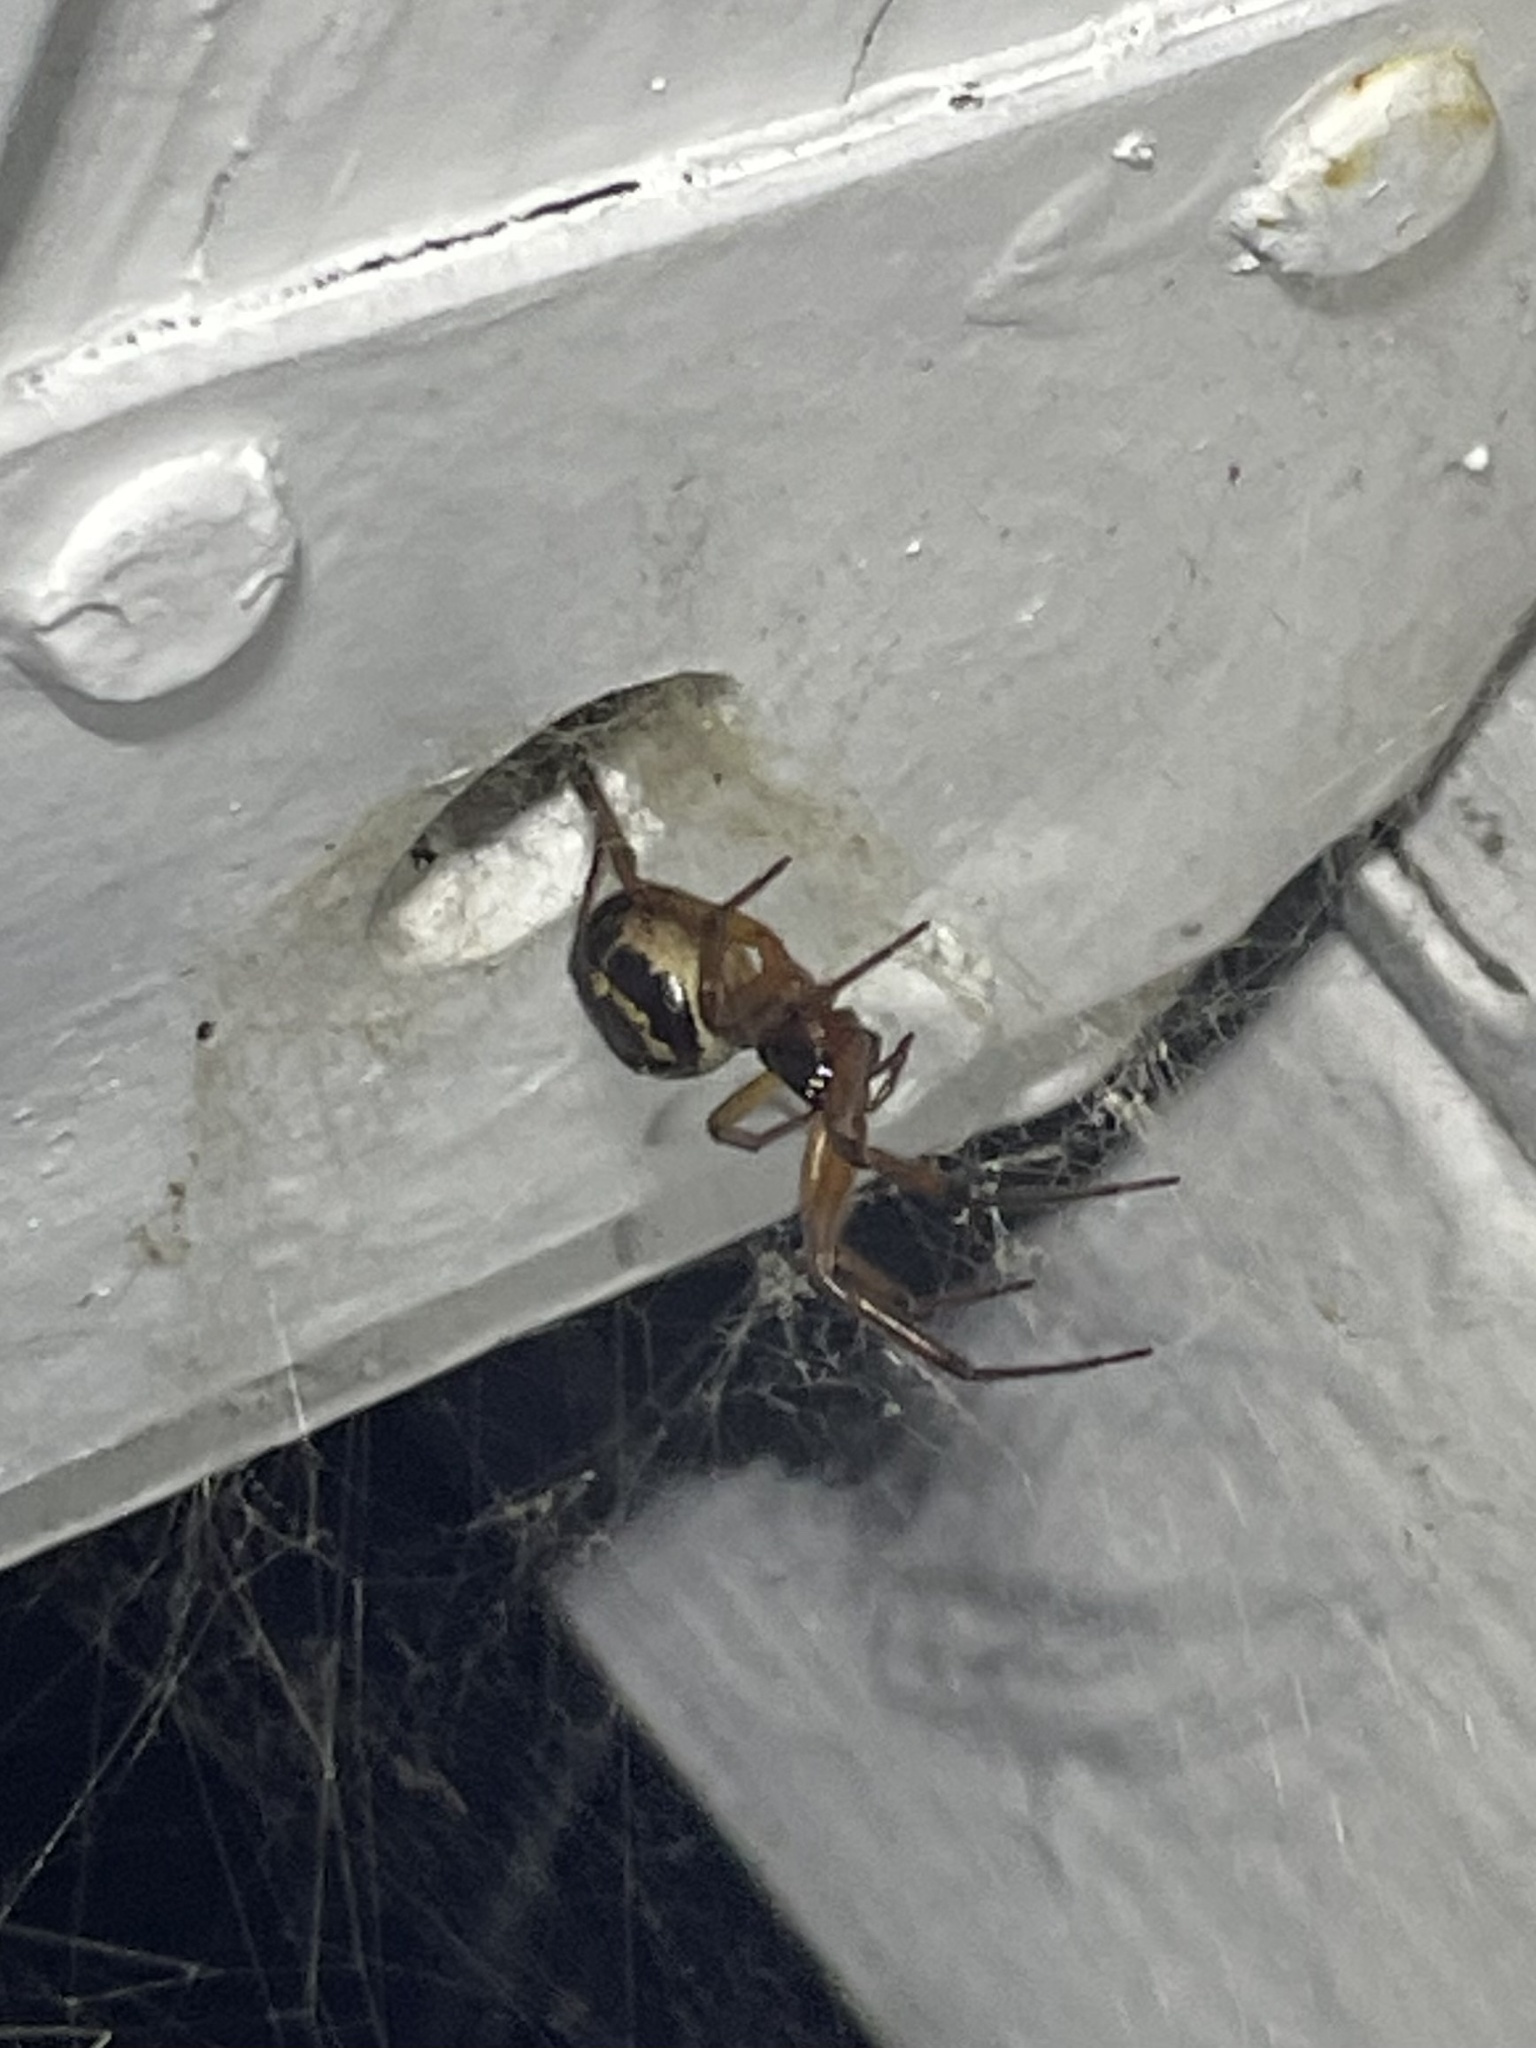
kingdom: Animalia
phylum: Arthropoda
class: Arachnida
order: Araneae
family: Theridiidae
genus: Steatoda
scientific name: Steatoda nobilis
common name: Cobweb weaver
